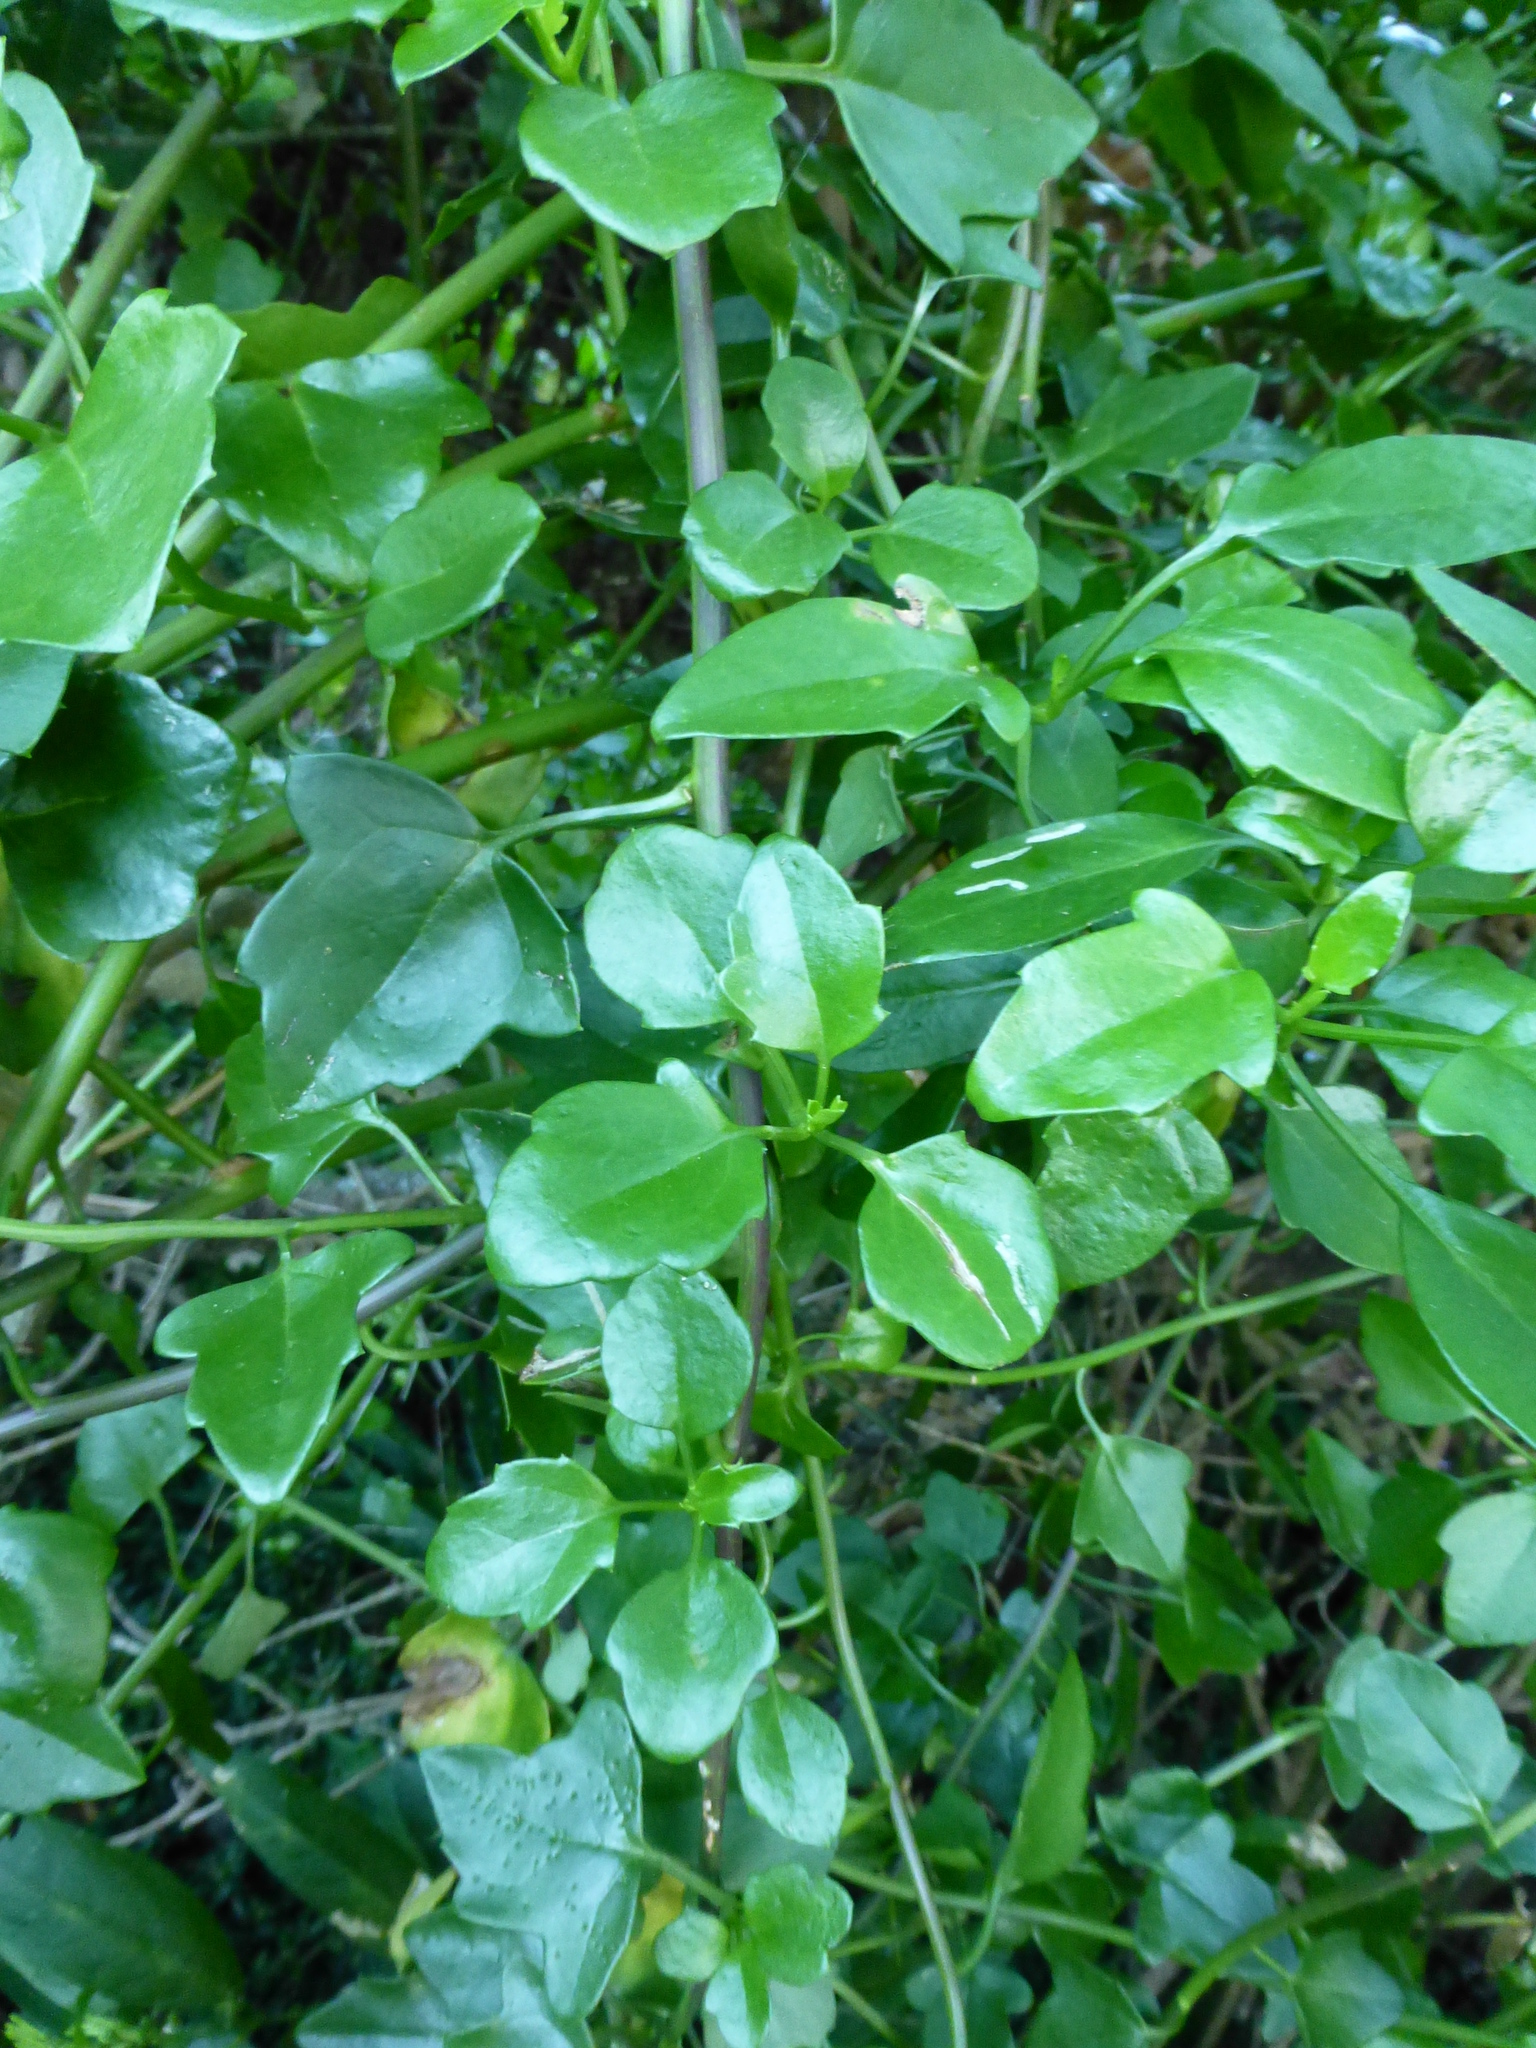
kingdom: Plantae
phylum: Tracheophyta
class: Magnoliopsida
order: Asterales
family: Asteraceae
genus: Senecio
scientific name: Senecio angulatus
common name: Climbing groundsel
